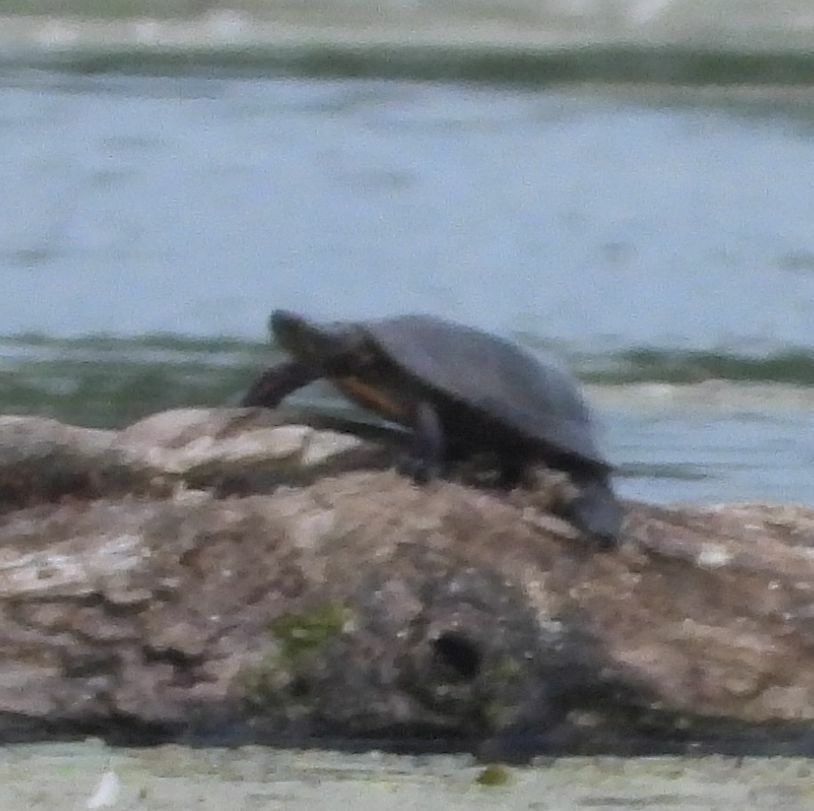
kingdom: Animalia
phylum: Chordata
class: Testudines
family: Emydidae
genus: Chrysemys
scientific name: Chrysemys picta
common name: Painted turtle
